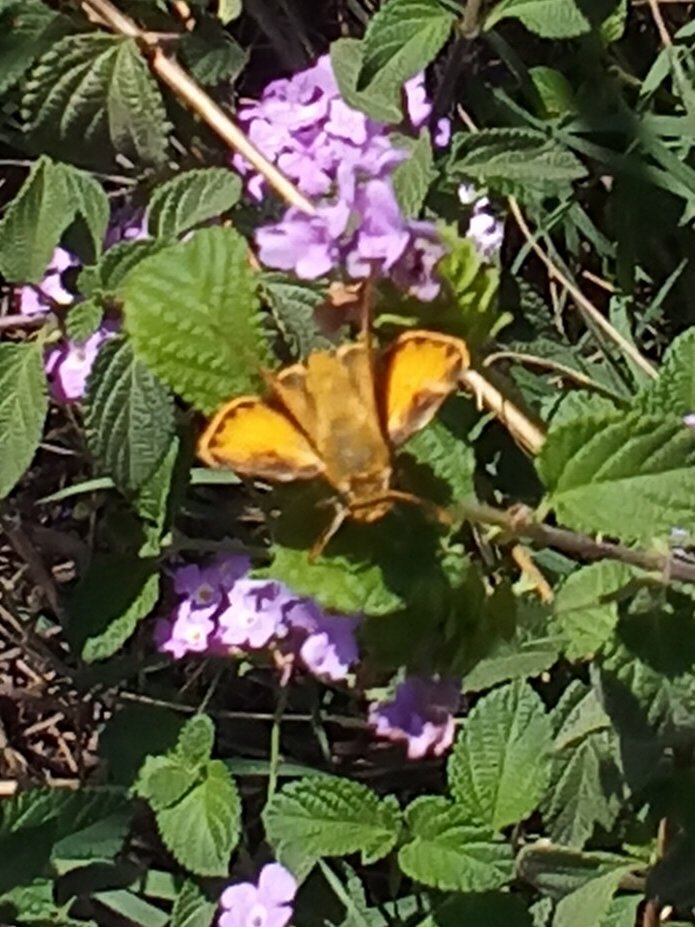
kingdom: Animalia
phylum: Arthropoda
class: Insecta
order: Lepidoptera
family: Hesperiidae
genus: Hylephila
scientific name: Hylephila phyleus
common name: Fiery skipper
